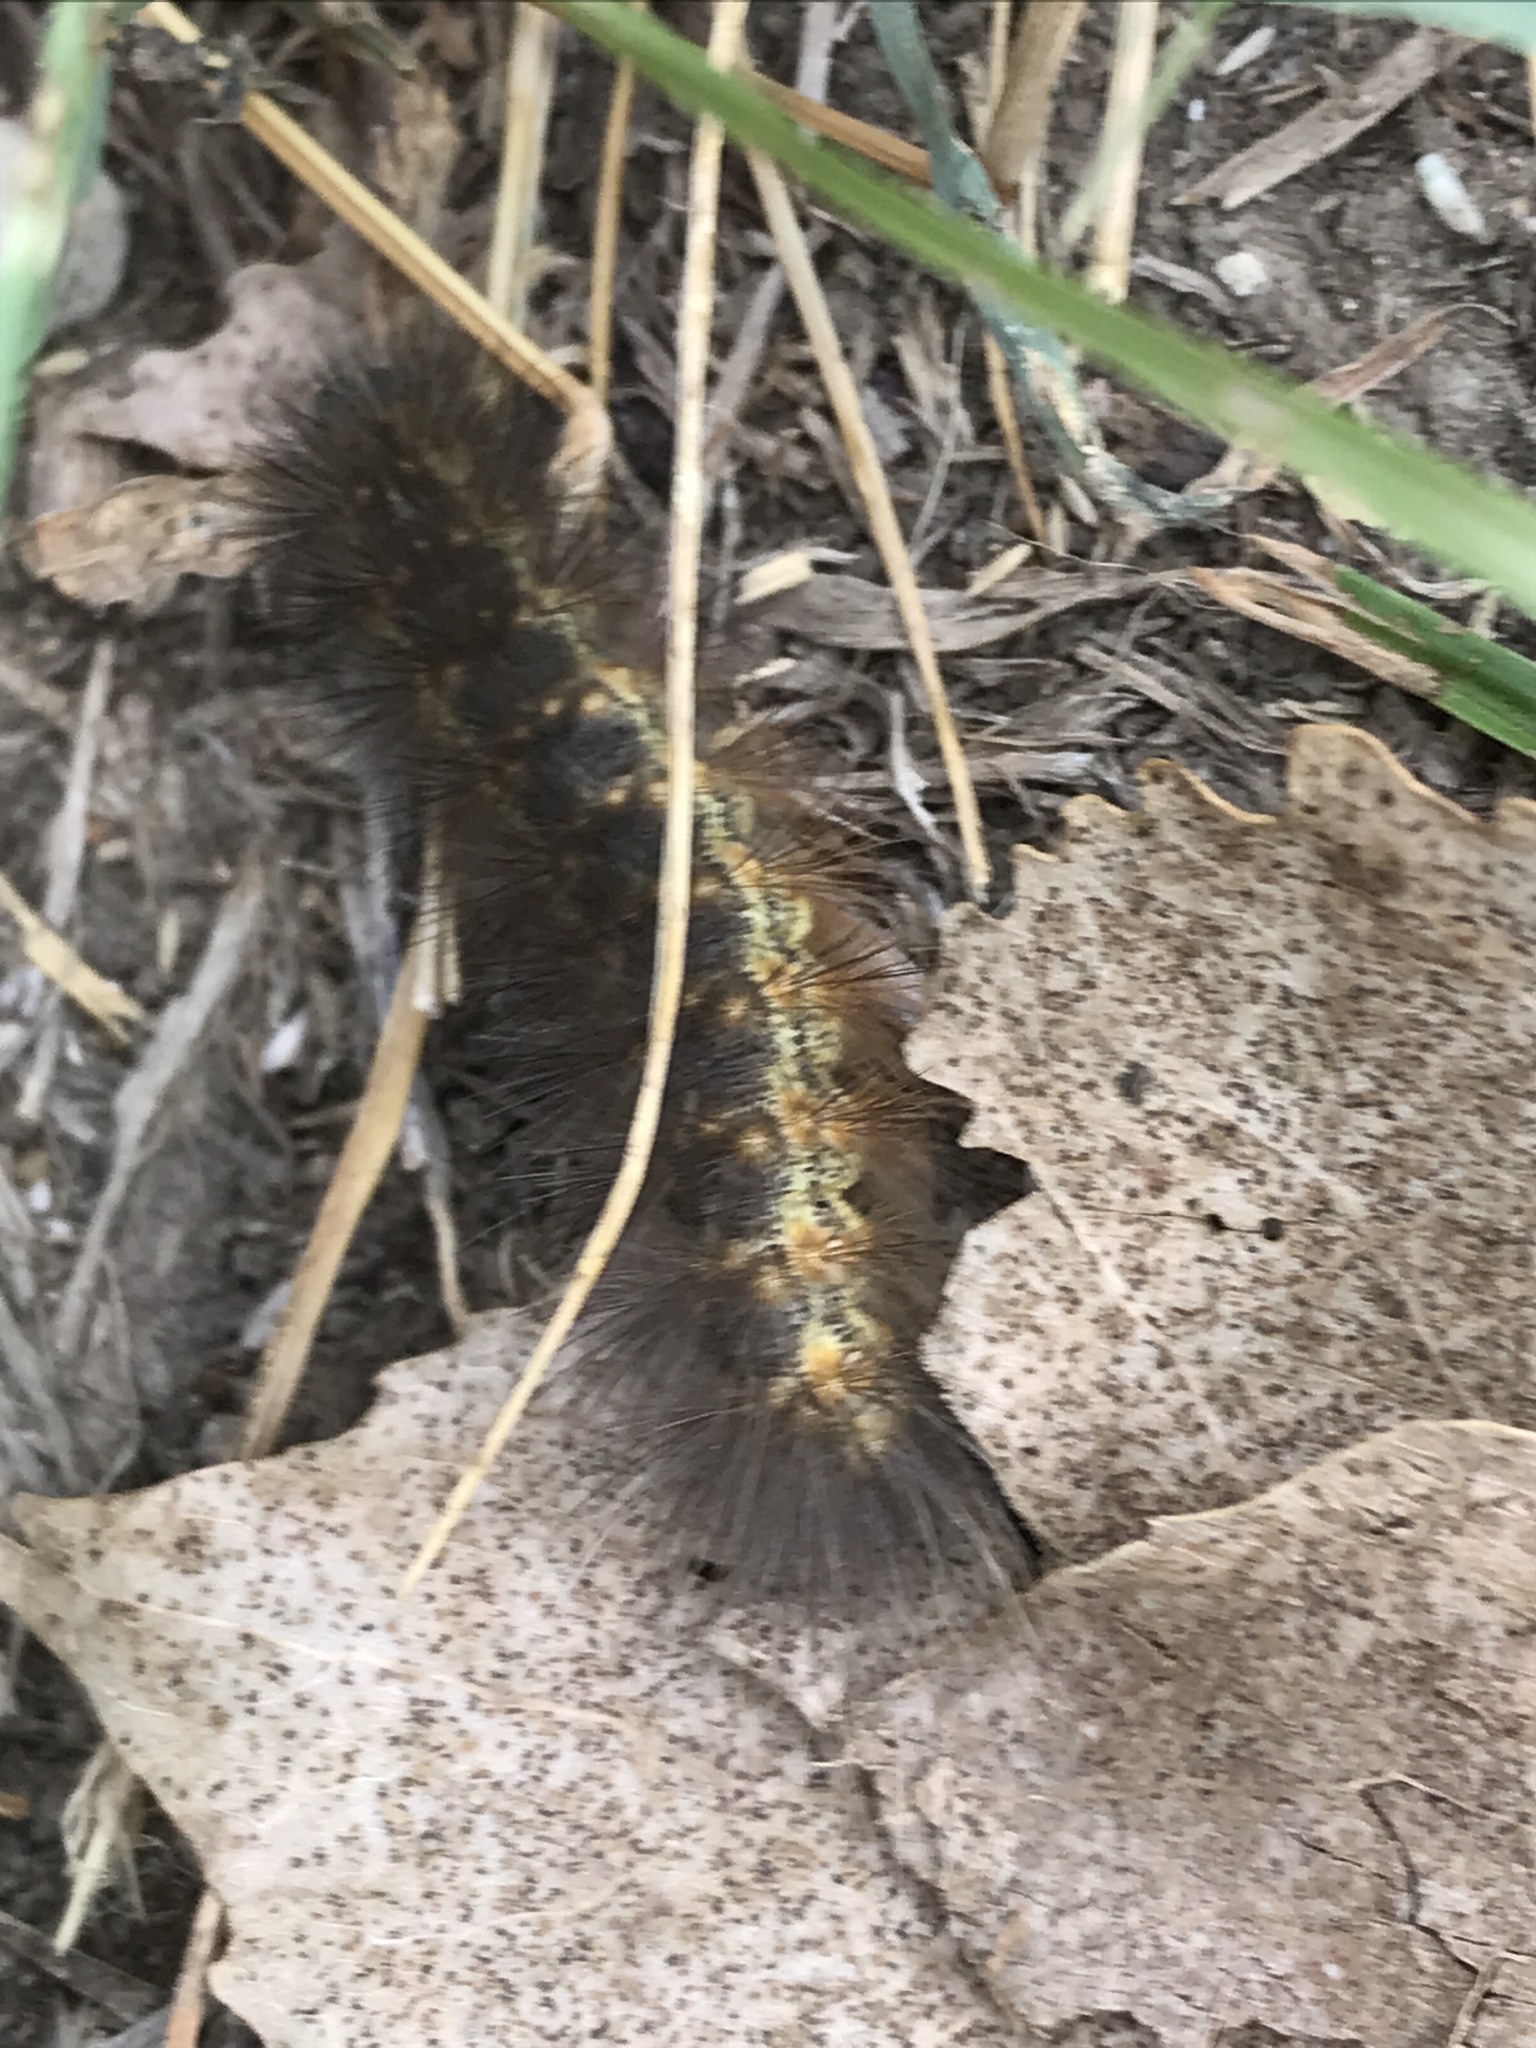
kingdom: Animalia
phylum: Arthropoda
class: Insecta
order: Lepidoptera
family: Erebidae
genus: Estigmene
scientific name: Estigmene acrea
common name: Salt marsh moth
